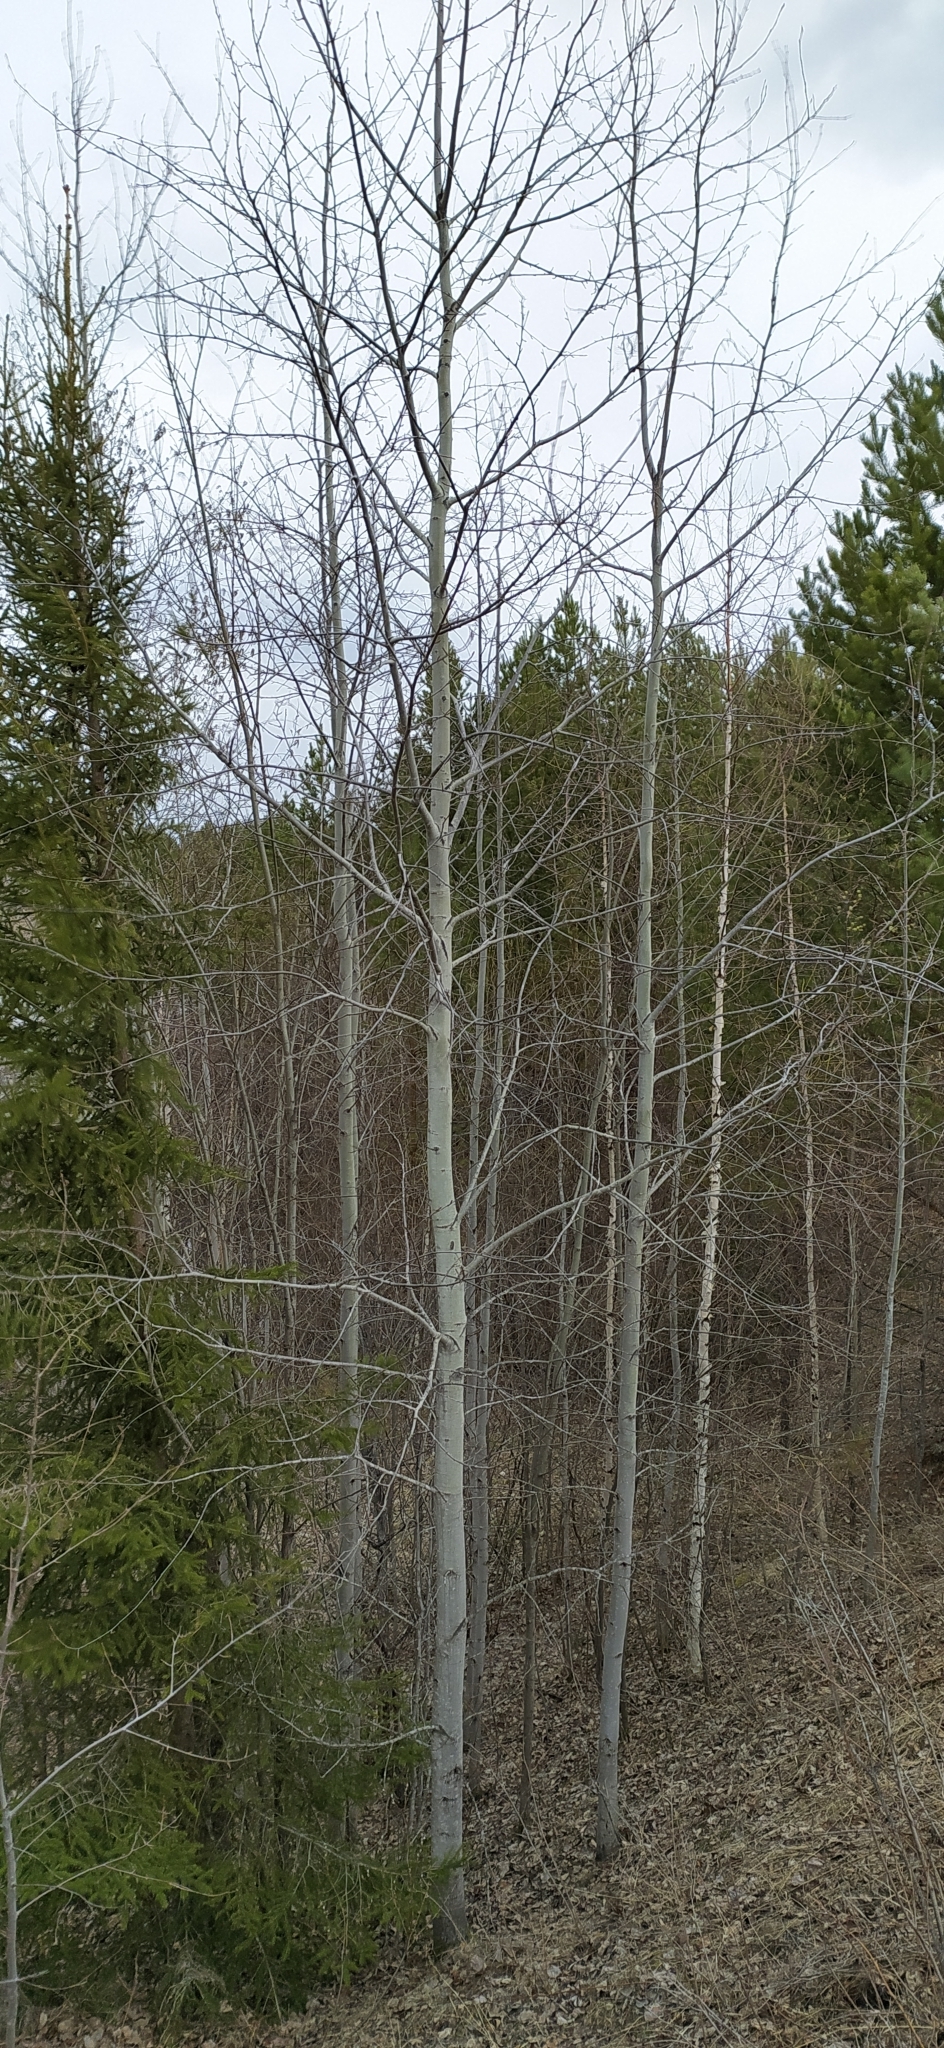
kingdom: Plantae
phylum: Tracheophyta
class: Magnoliopsida
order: Malpighiales
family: Salicaceae
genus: Populus
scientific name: Populus tremula
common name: European aspen
